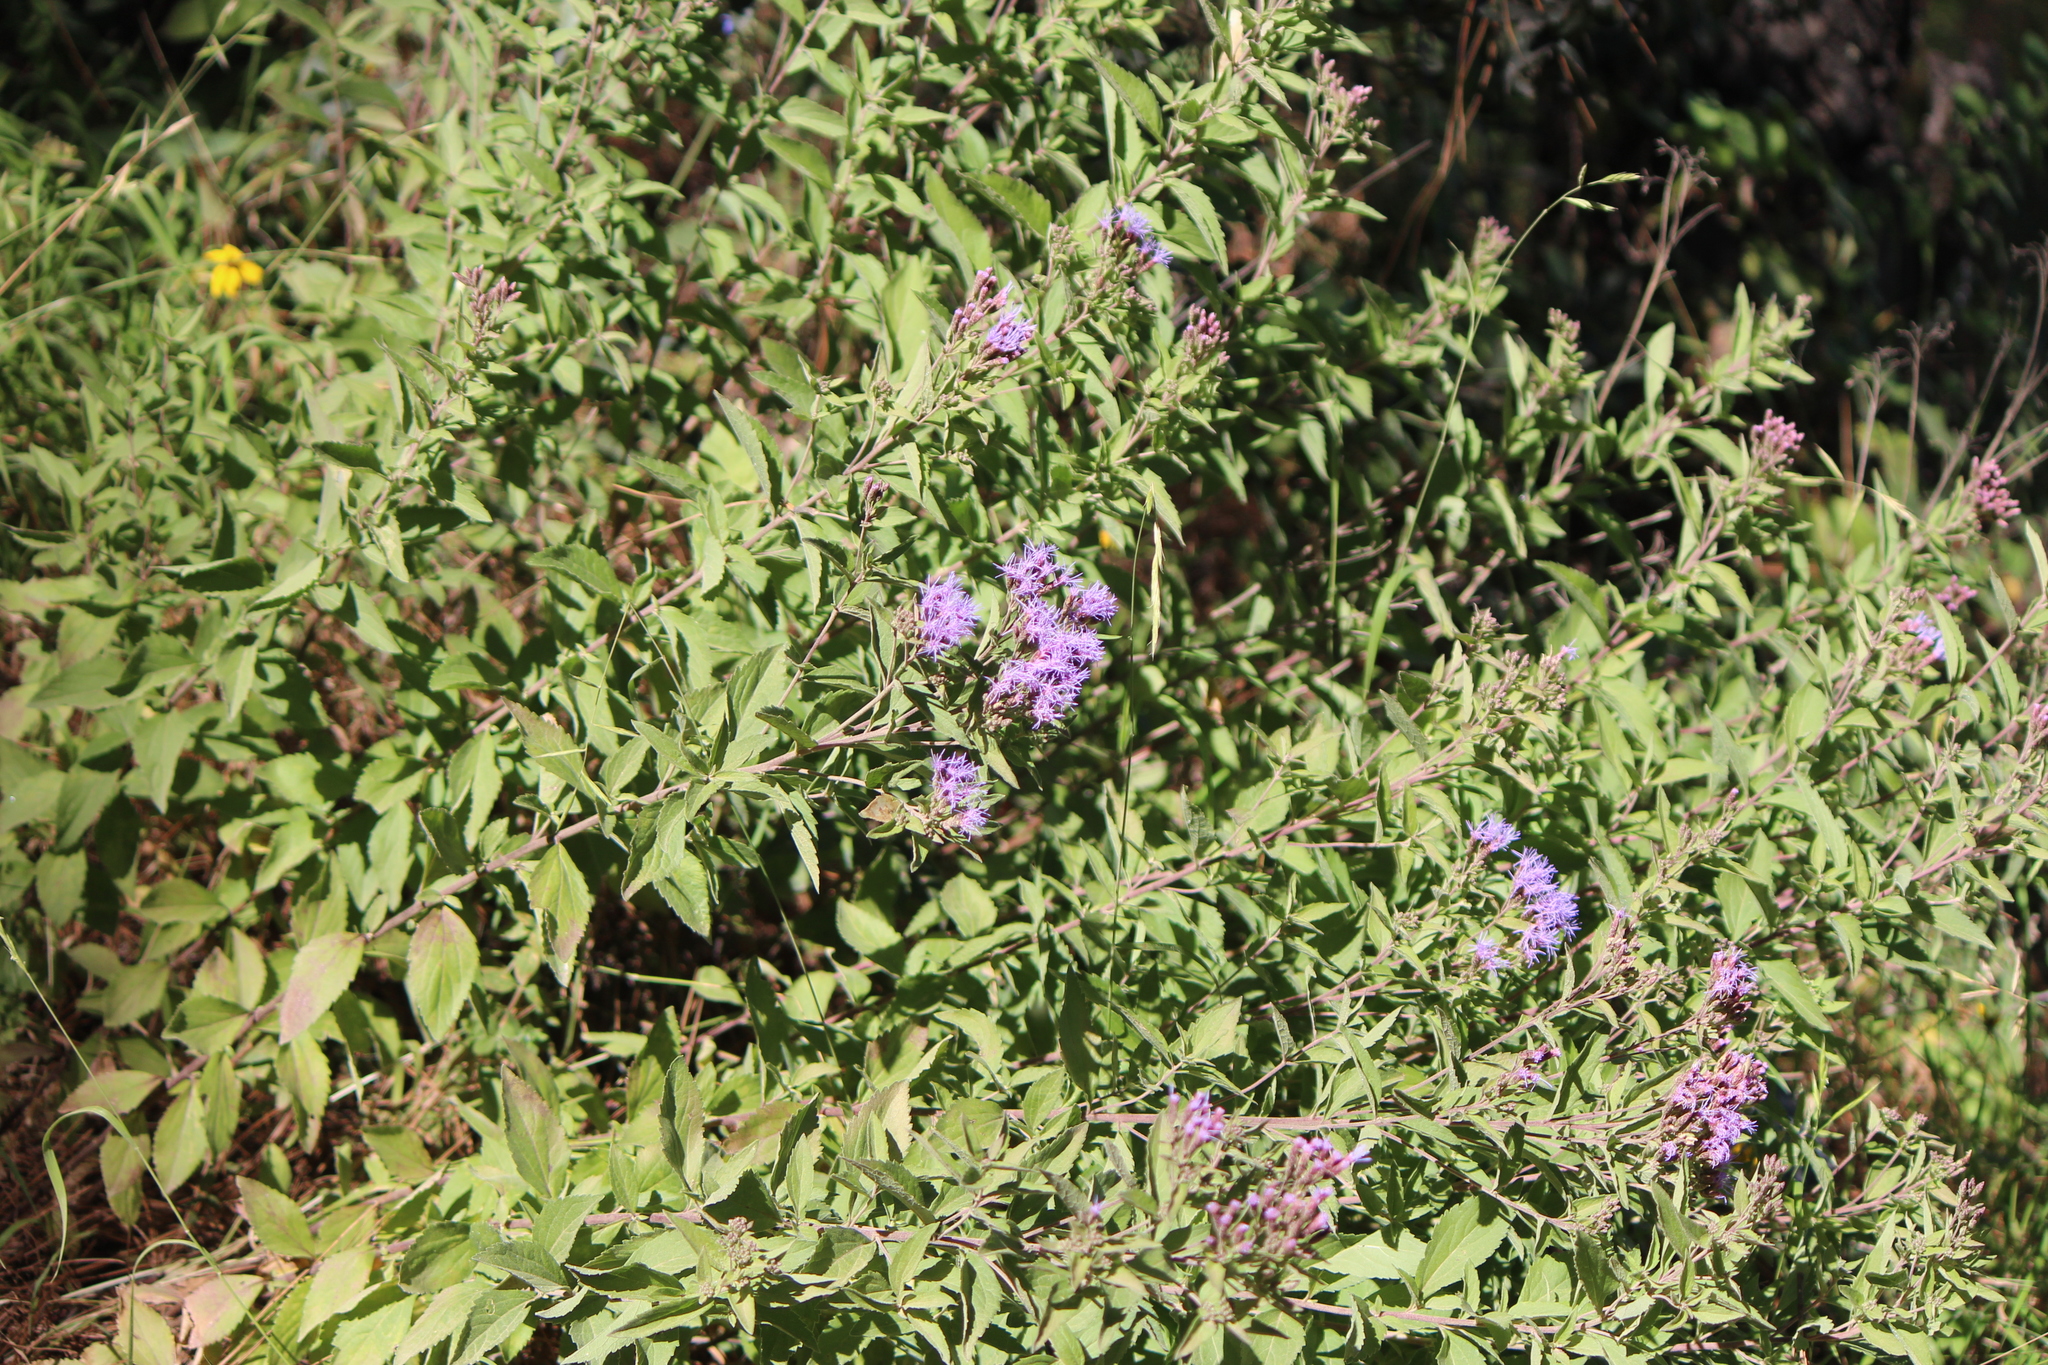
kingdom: Plantae
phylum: Tracheophyta
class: Magnoliopsida
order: Asterales
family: Asteraceae
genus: Chromolaena
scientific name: Chromolaena pulchella
